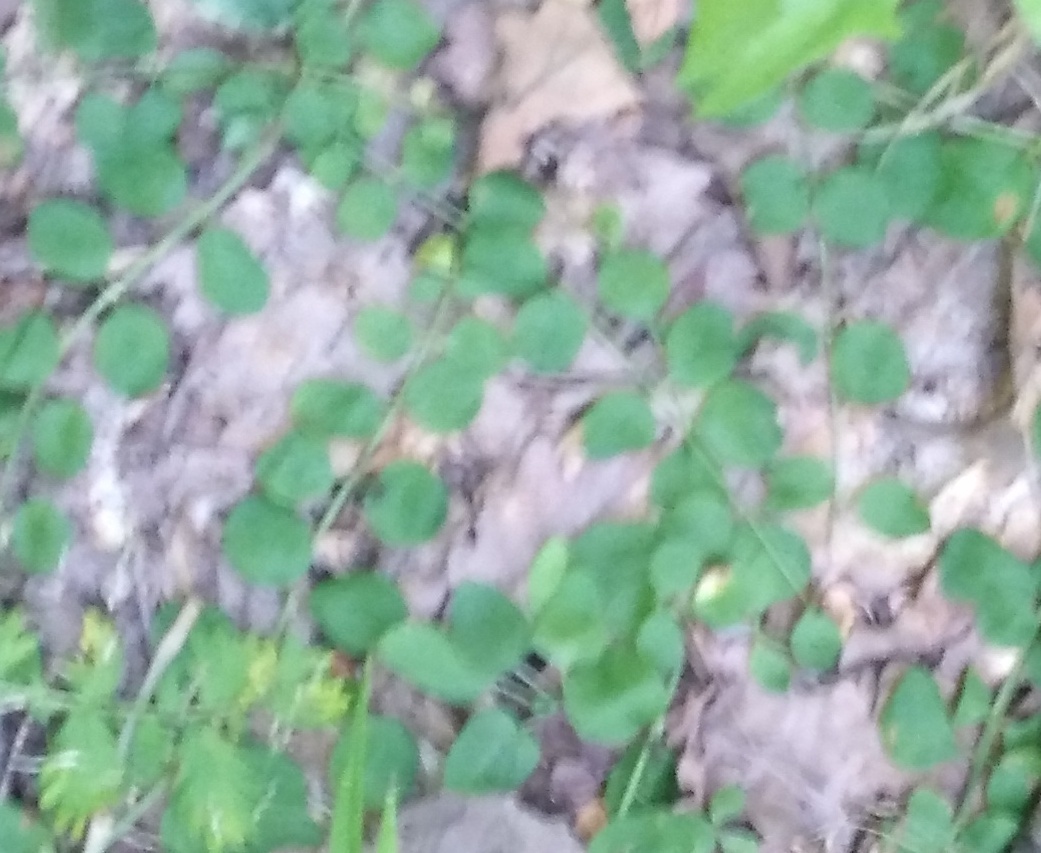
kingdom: Plantae
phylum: Tracheophyta
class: Magnoliopsida
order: Ericales
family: Primulaceae
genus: Lysimachia
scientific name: Lysimachia nummularia
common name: Moneywort
